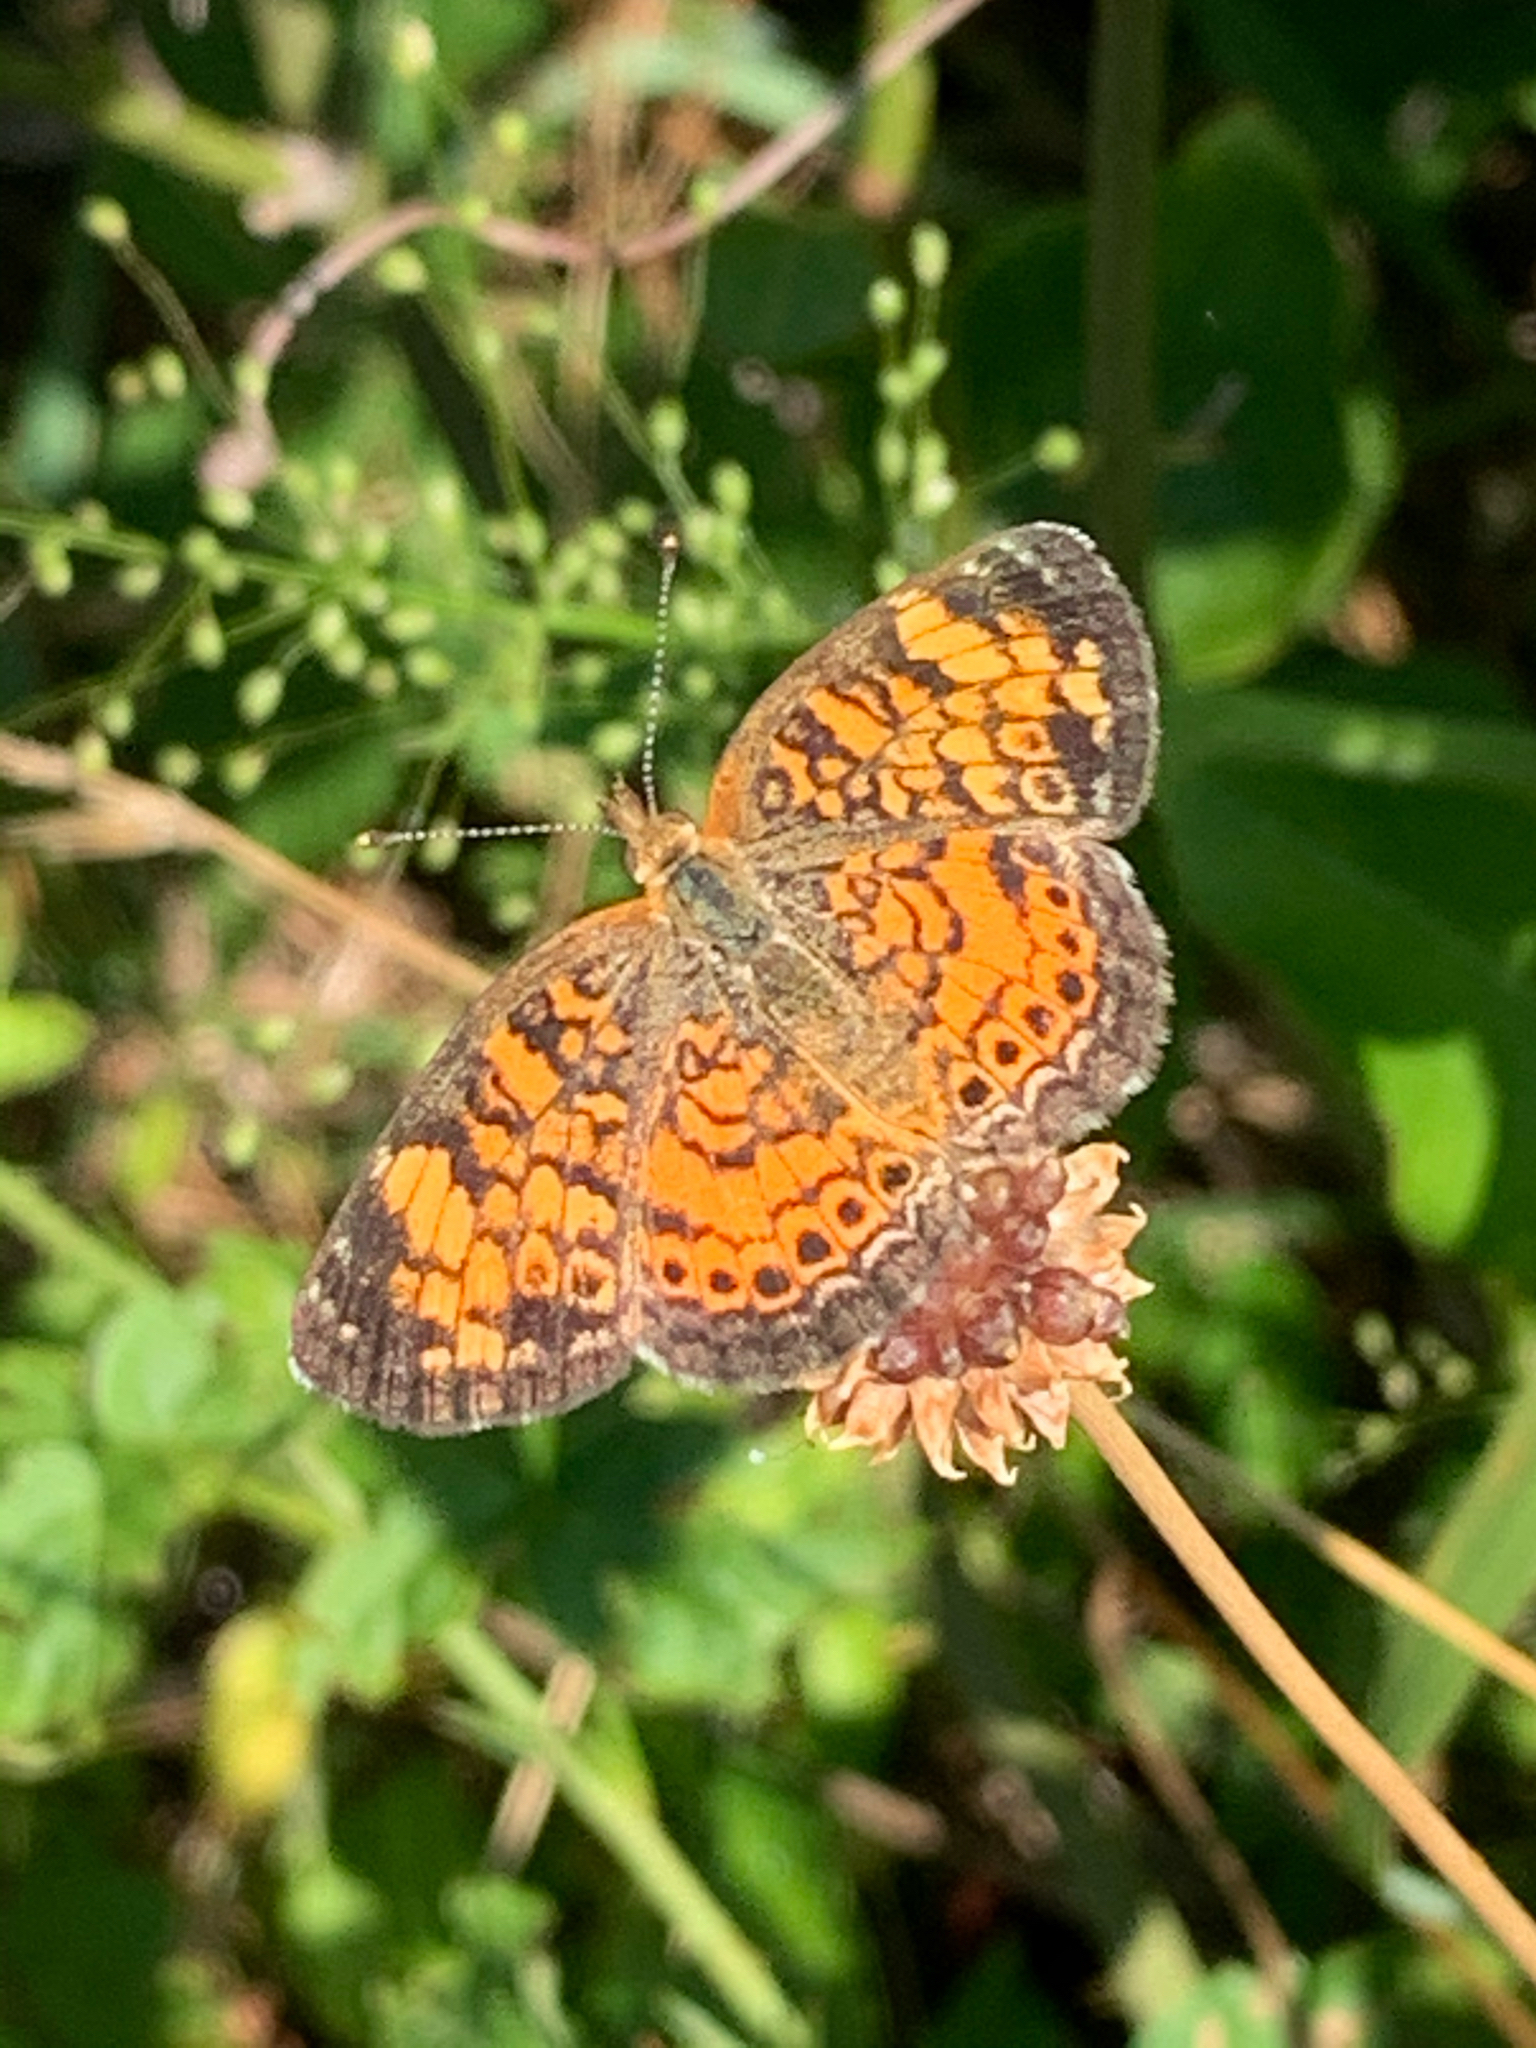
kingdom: Animalia
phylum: Arthropoda
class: Insecta
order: Lepidoptera
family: Nymphalidae
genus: Phyciodes
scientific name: Phyciodes tharos
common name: Pearl crescent
